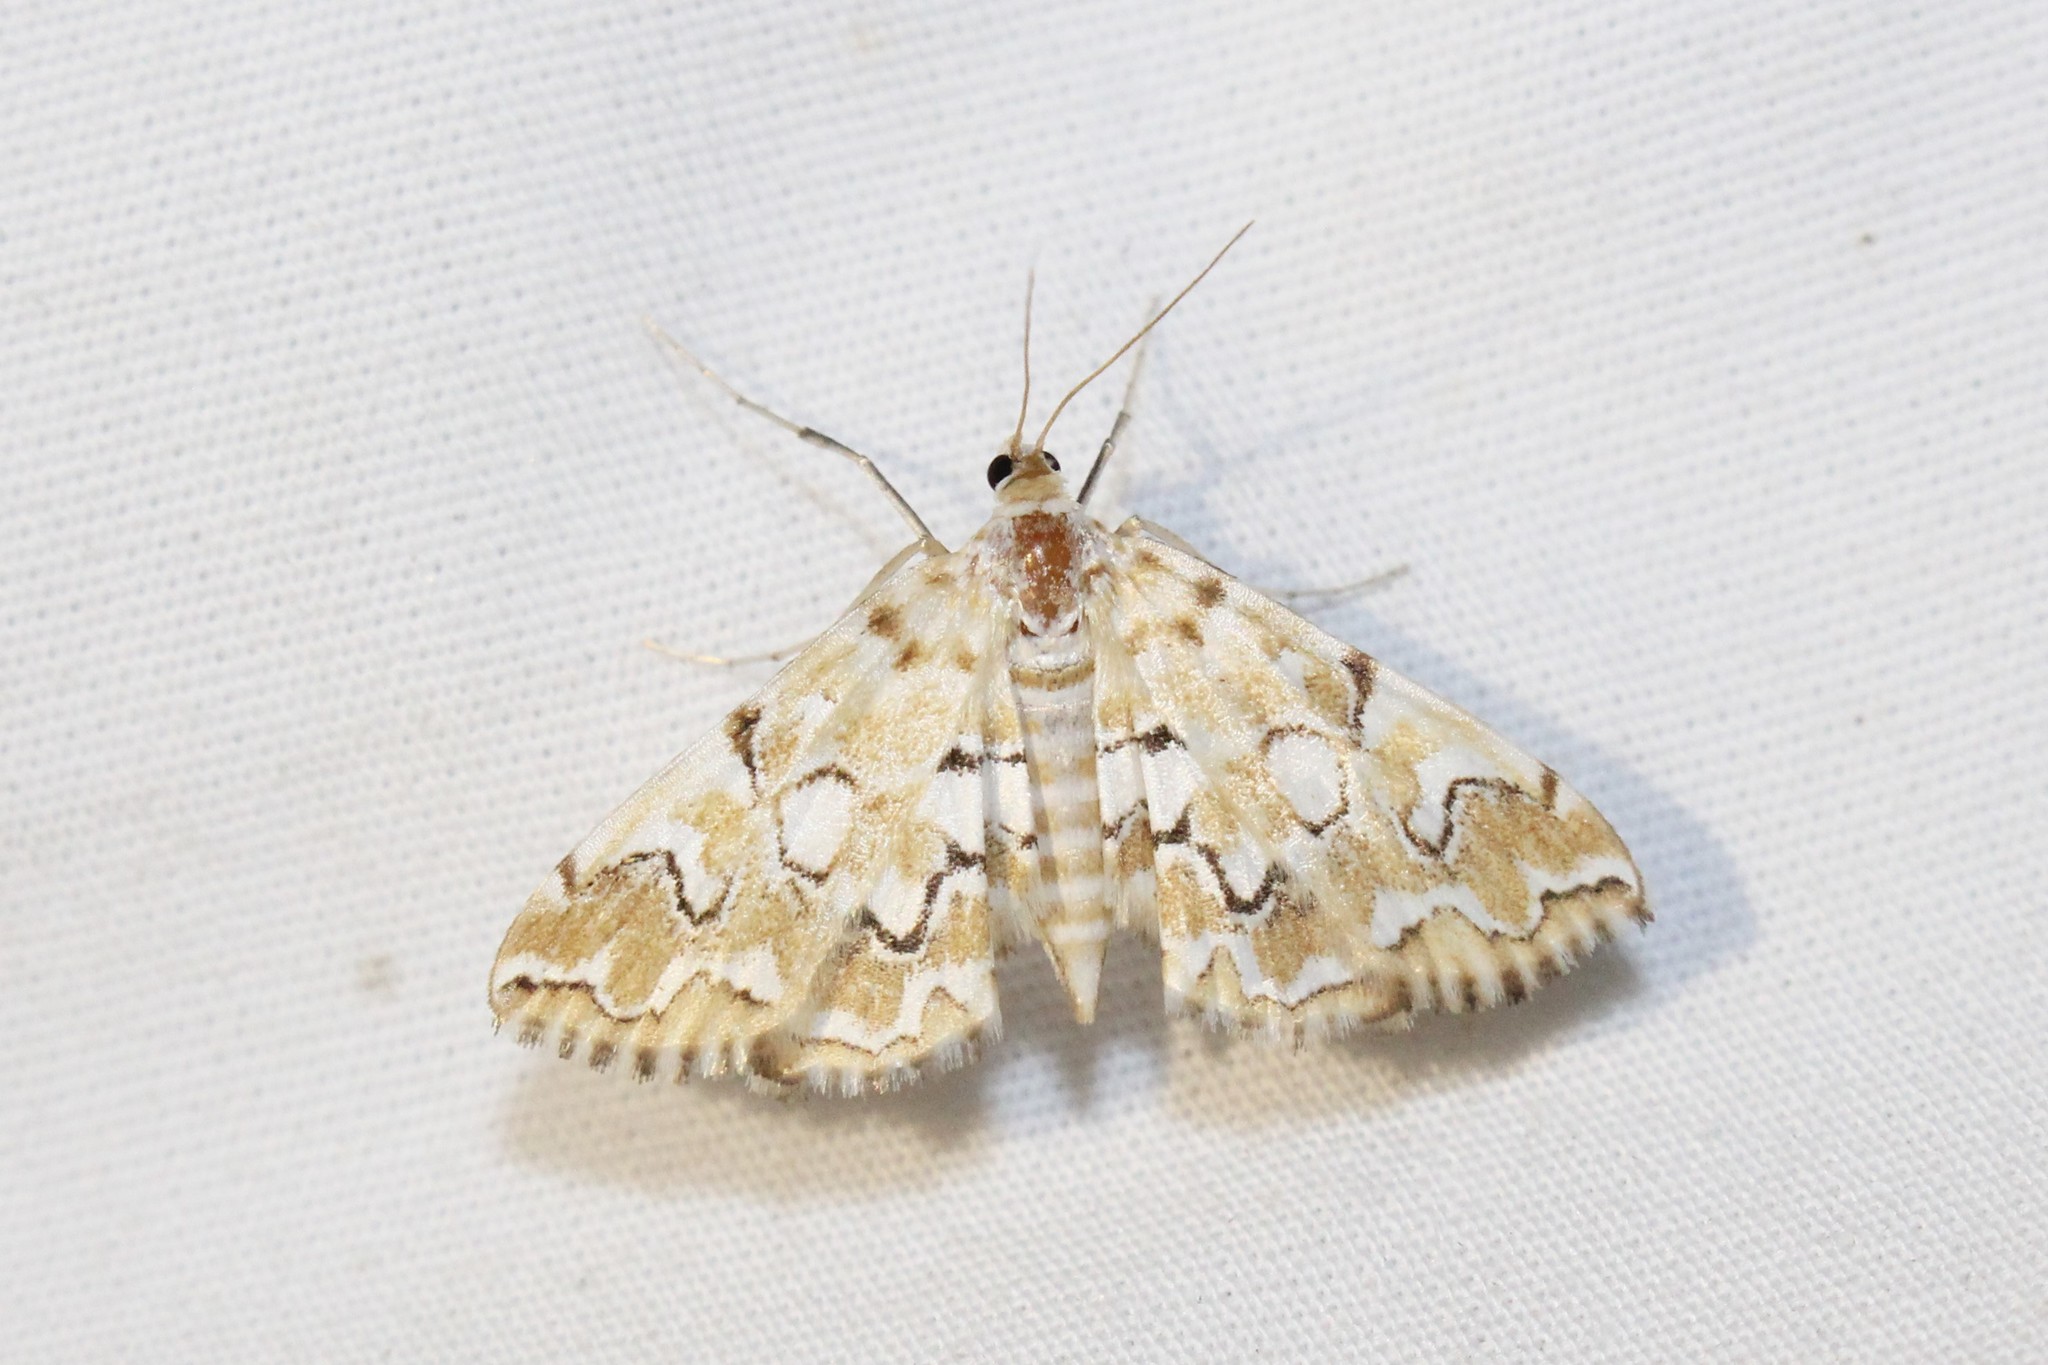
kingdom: Animalia
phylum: Arthropoda
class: Insecta
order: Lepidoptera
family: Crambidae
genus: Elophila
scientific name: Elophila icciusalis
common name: Pondside pyralid moth
